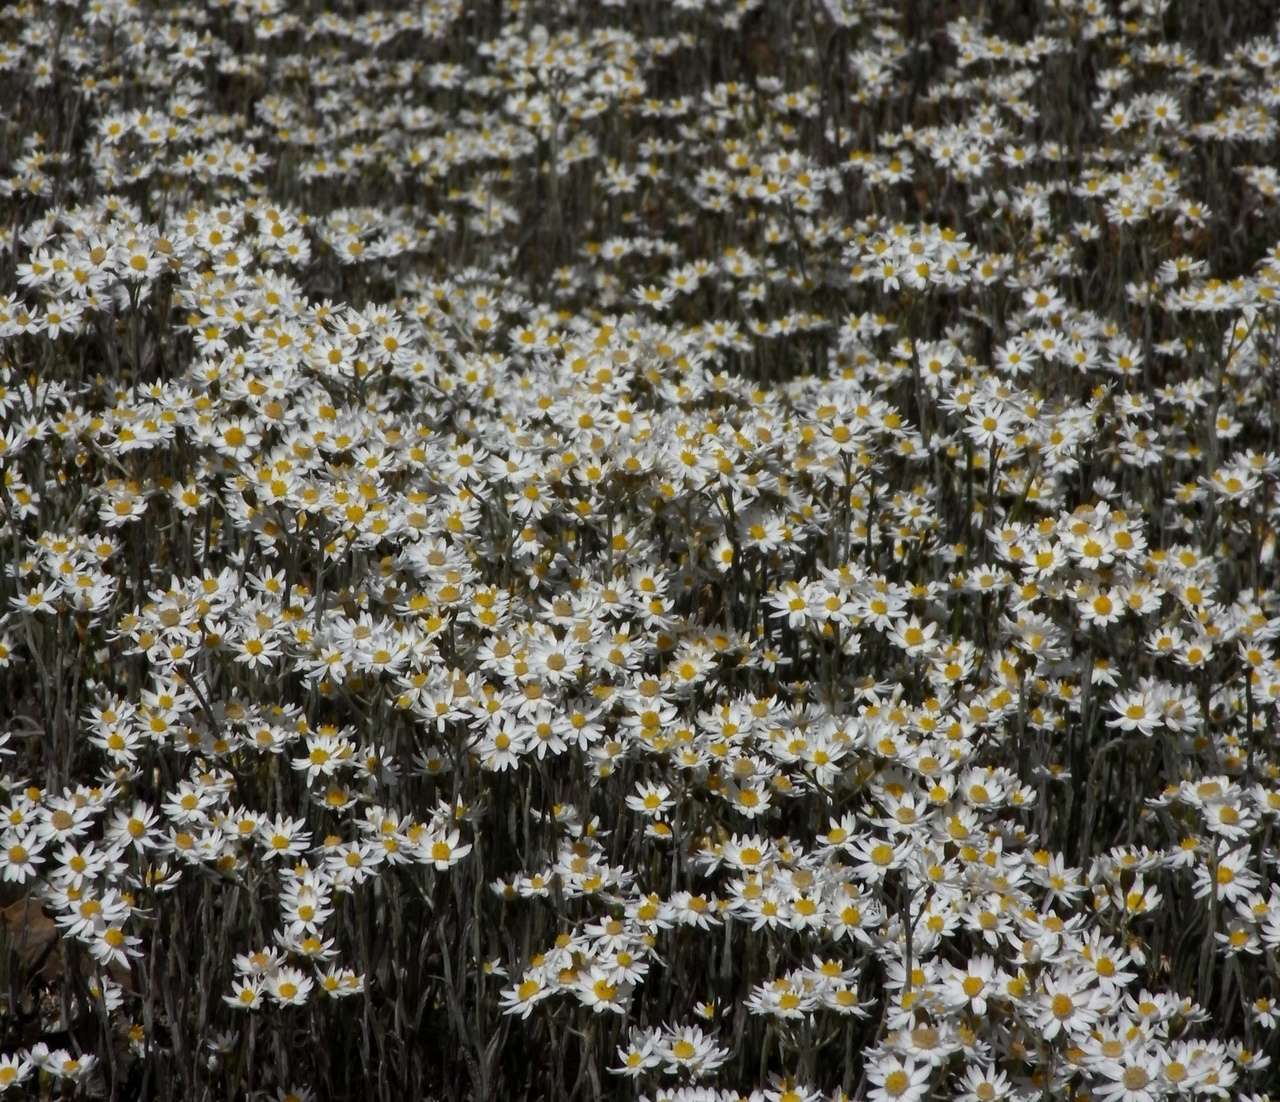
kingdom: Plantae
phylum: Tracheophyta
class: Magnoliopsida
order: Asterales
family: Asteraceae
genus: Rhodanthe
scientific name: Rhodanthe corymbiflora
